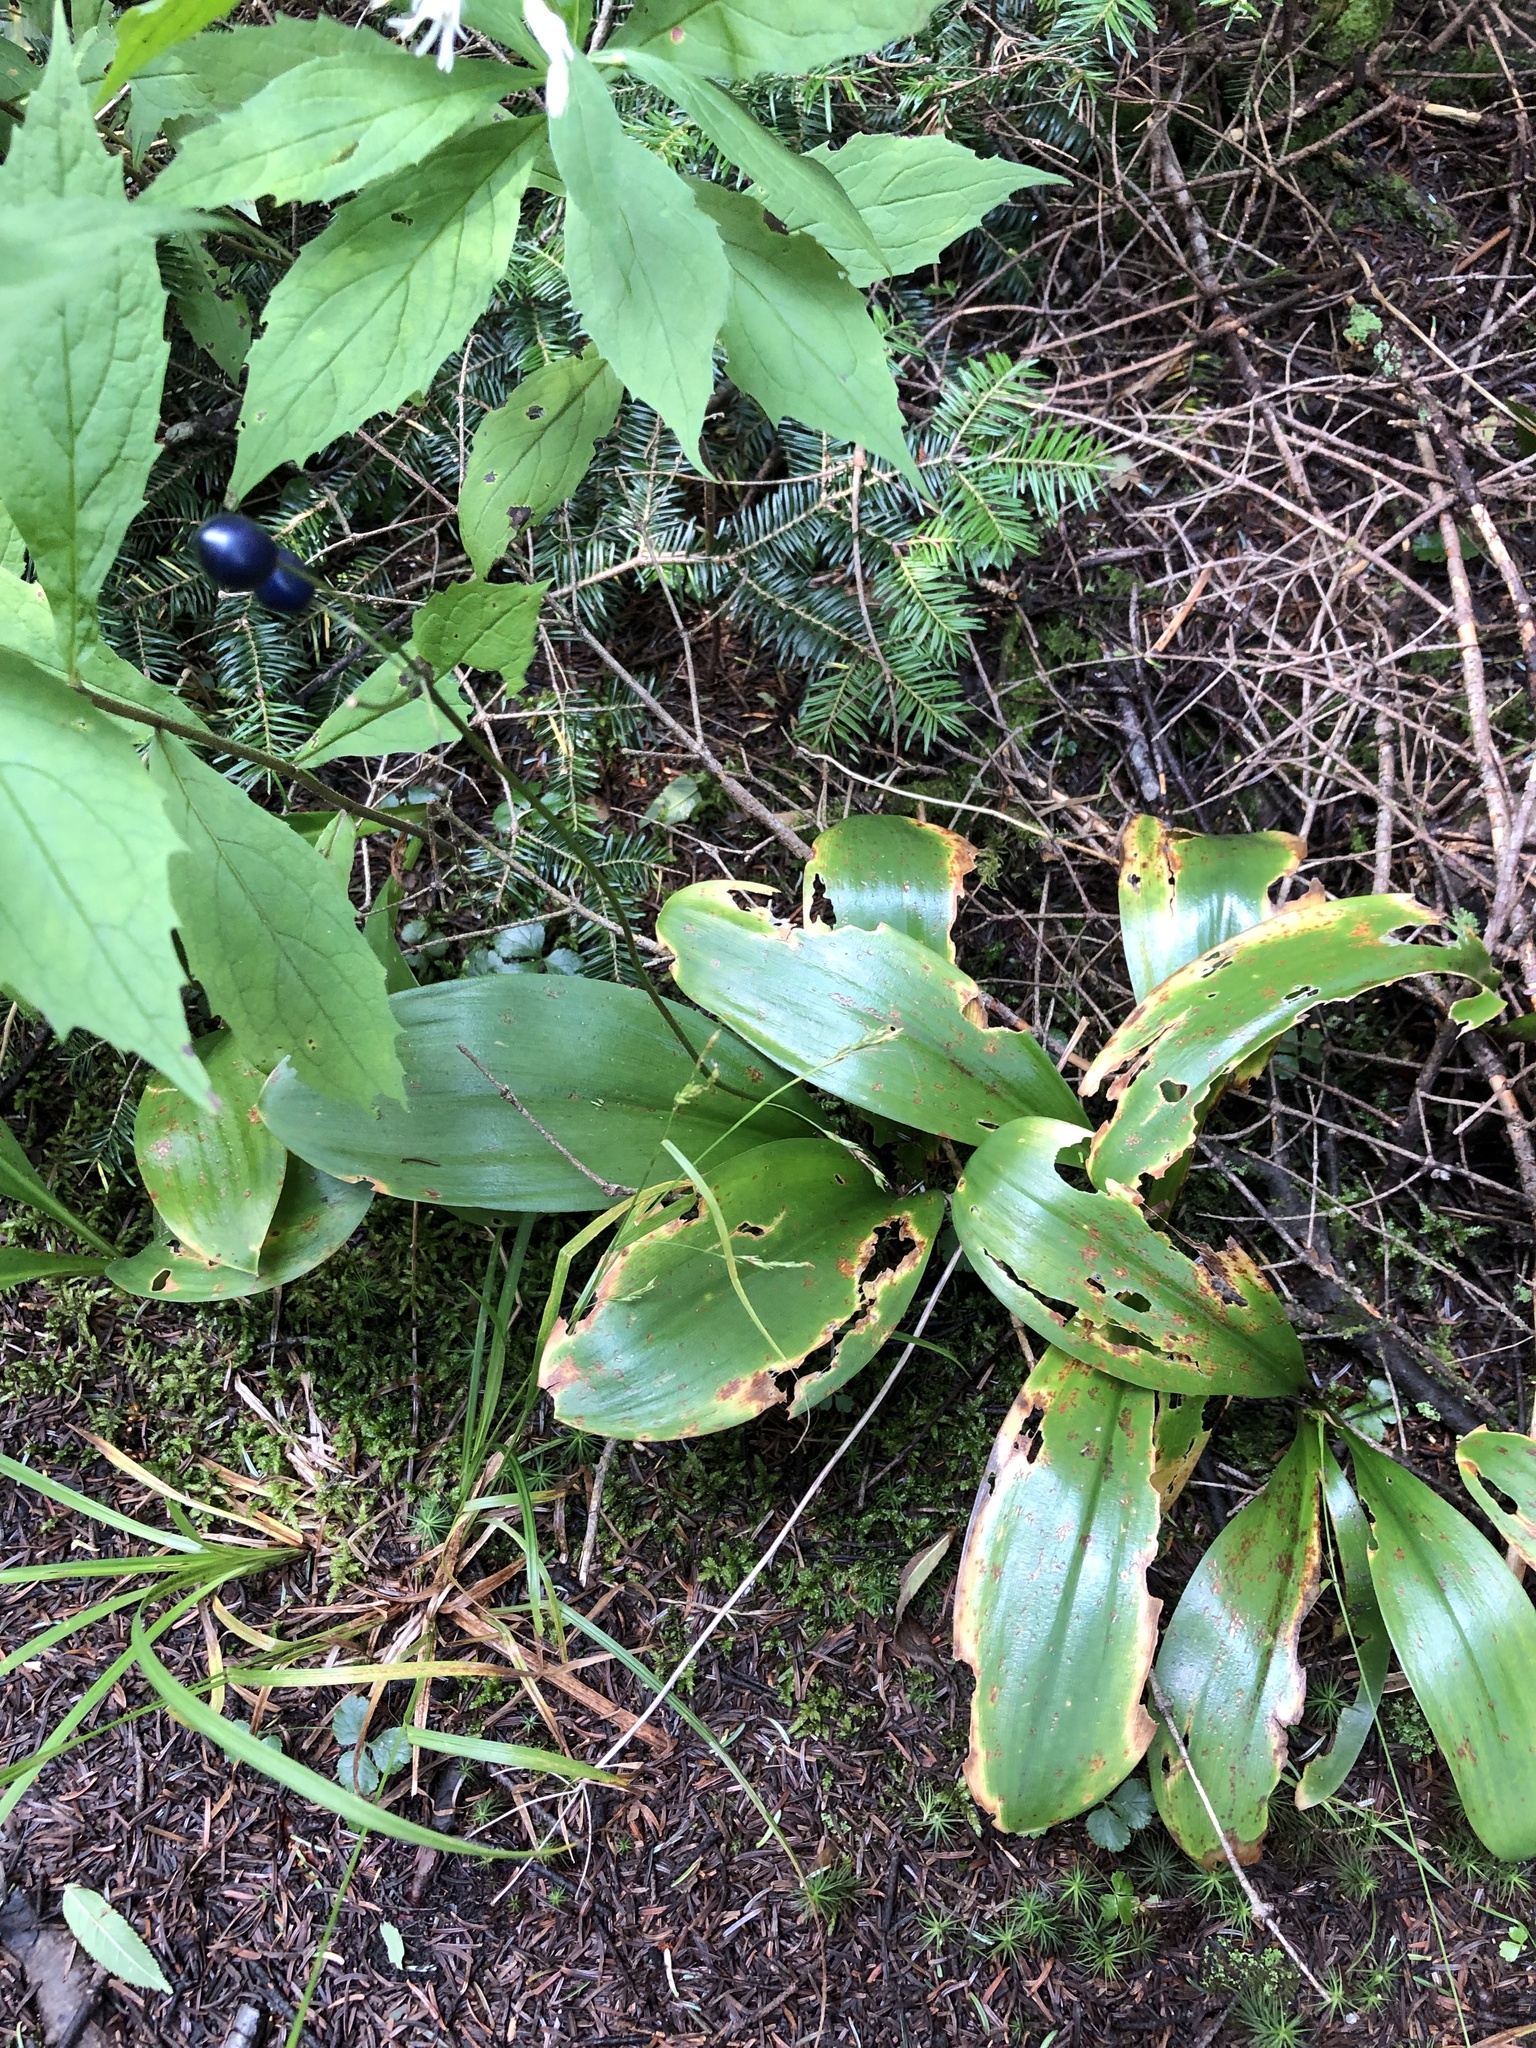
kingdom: Plantae
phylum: Tracheophyta
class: Liliopsida
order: Liliales
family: Liliaceae
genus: Clintonia
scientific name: Clintonia borealis
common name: Yellow clintonia
